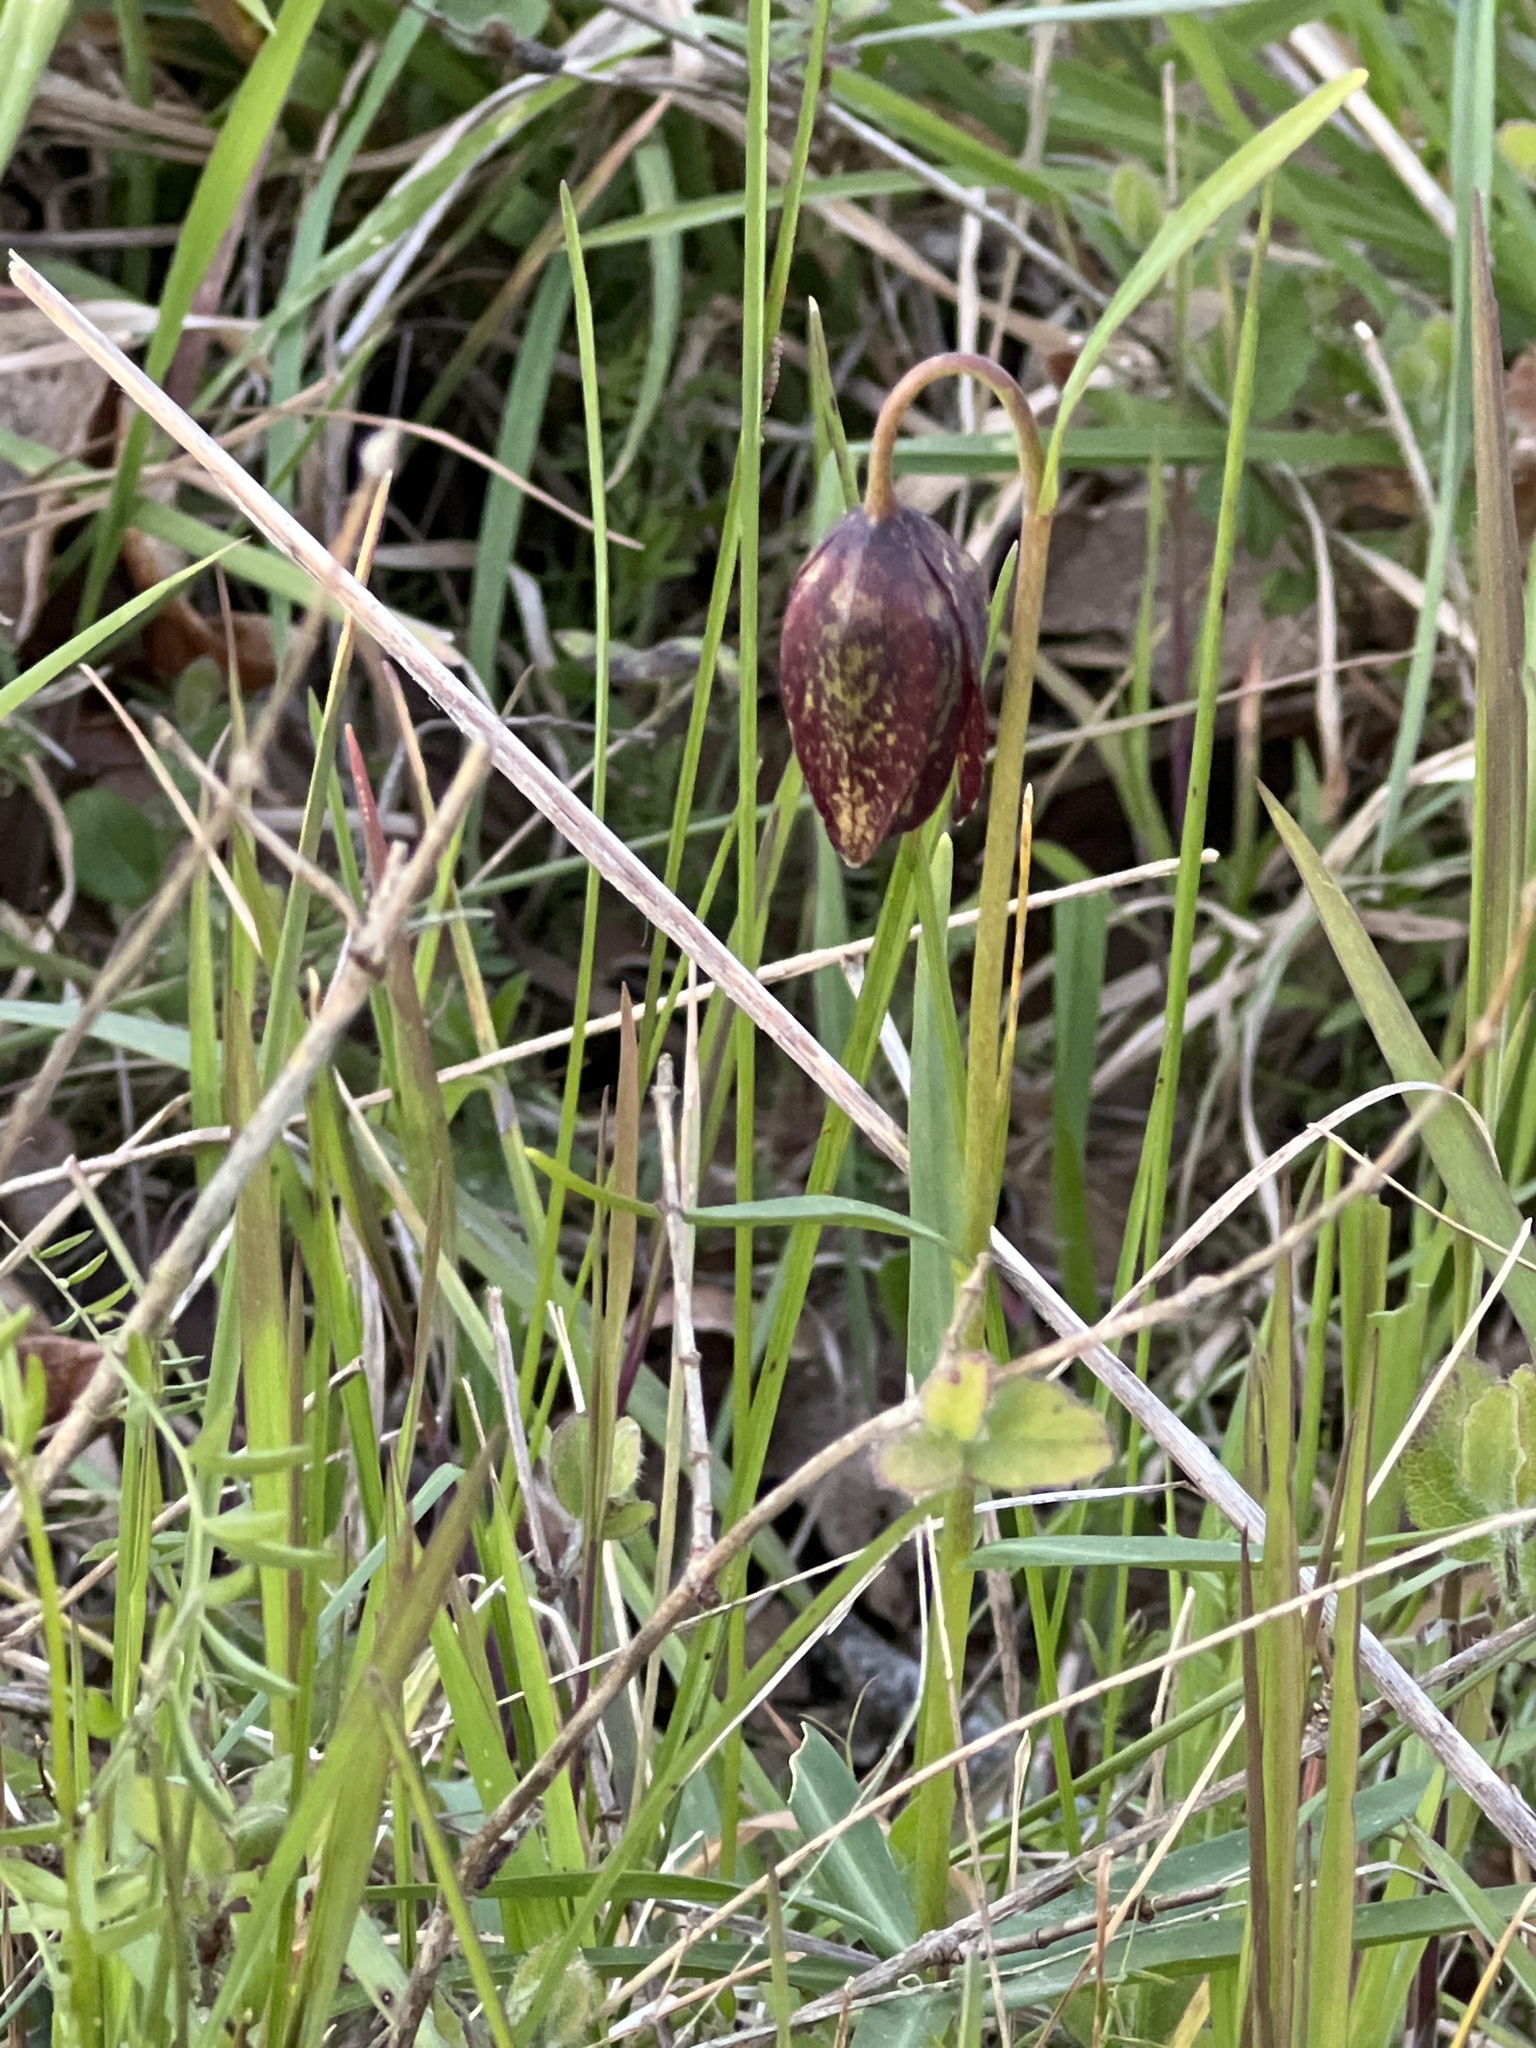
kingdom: Plantae
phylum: Tracheophyta
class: Liliopsida
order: Liliales
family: Liliaceae
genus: Fritillaria
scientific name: Fritillaria affinis
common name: Ojai fritillary
